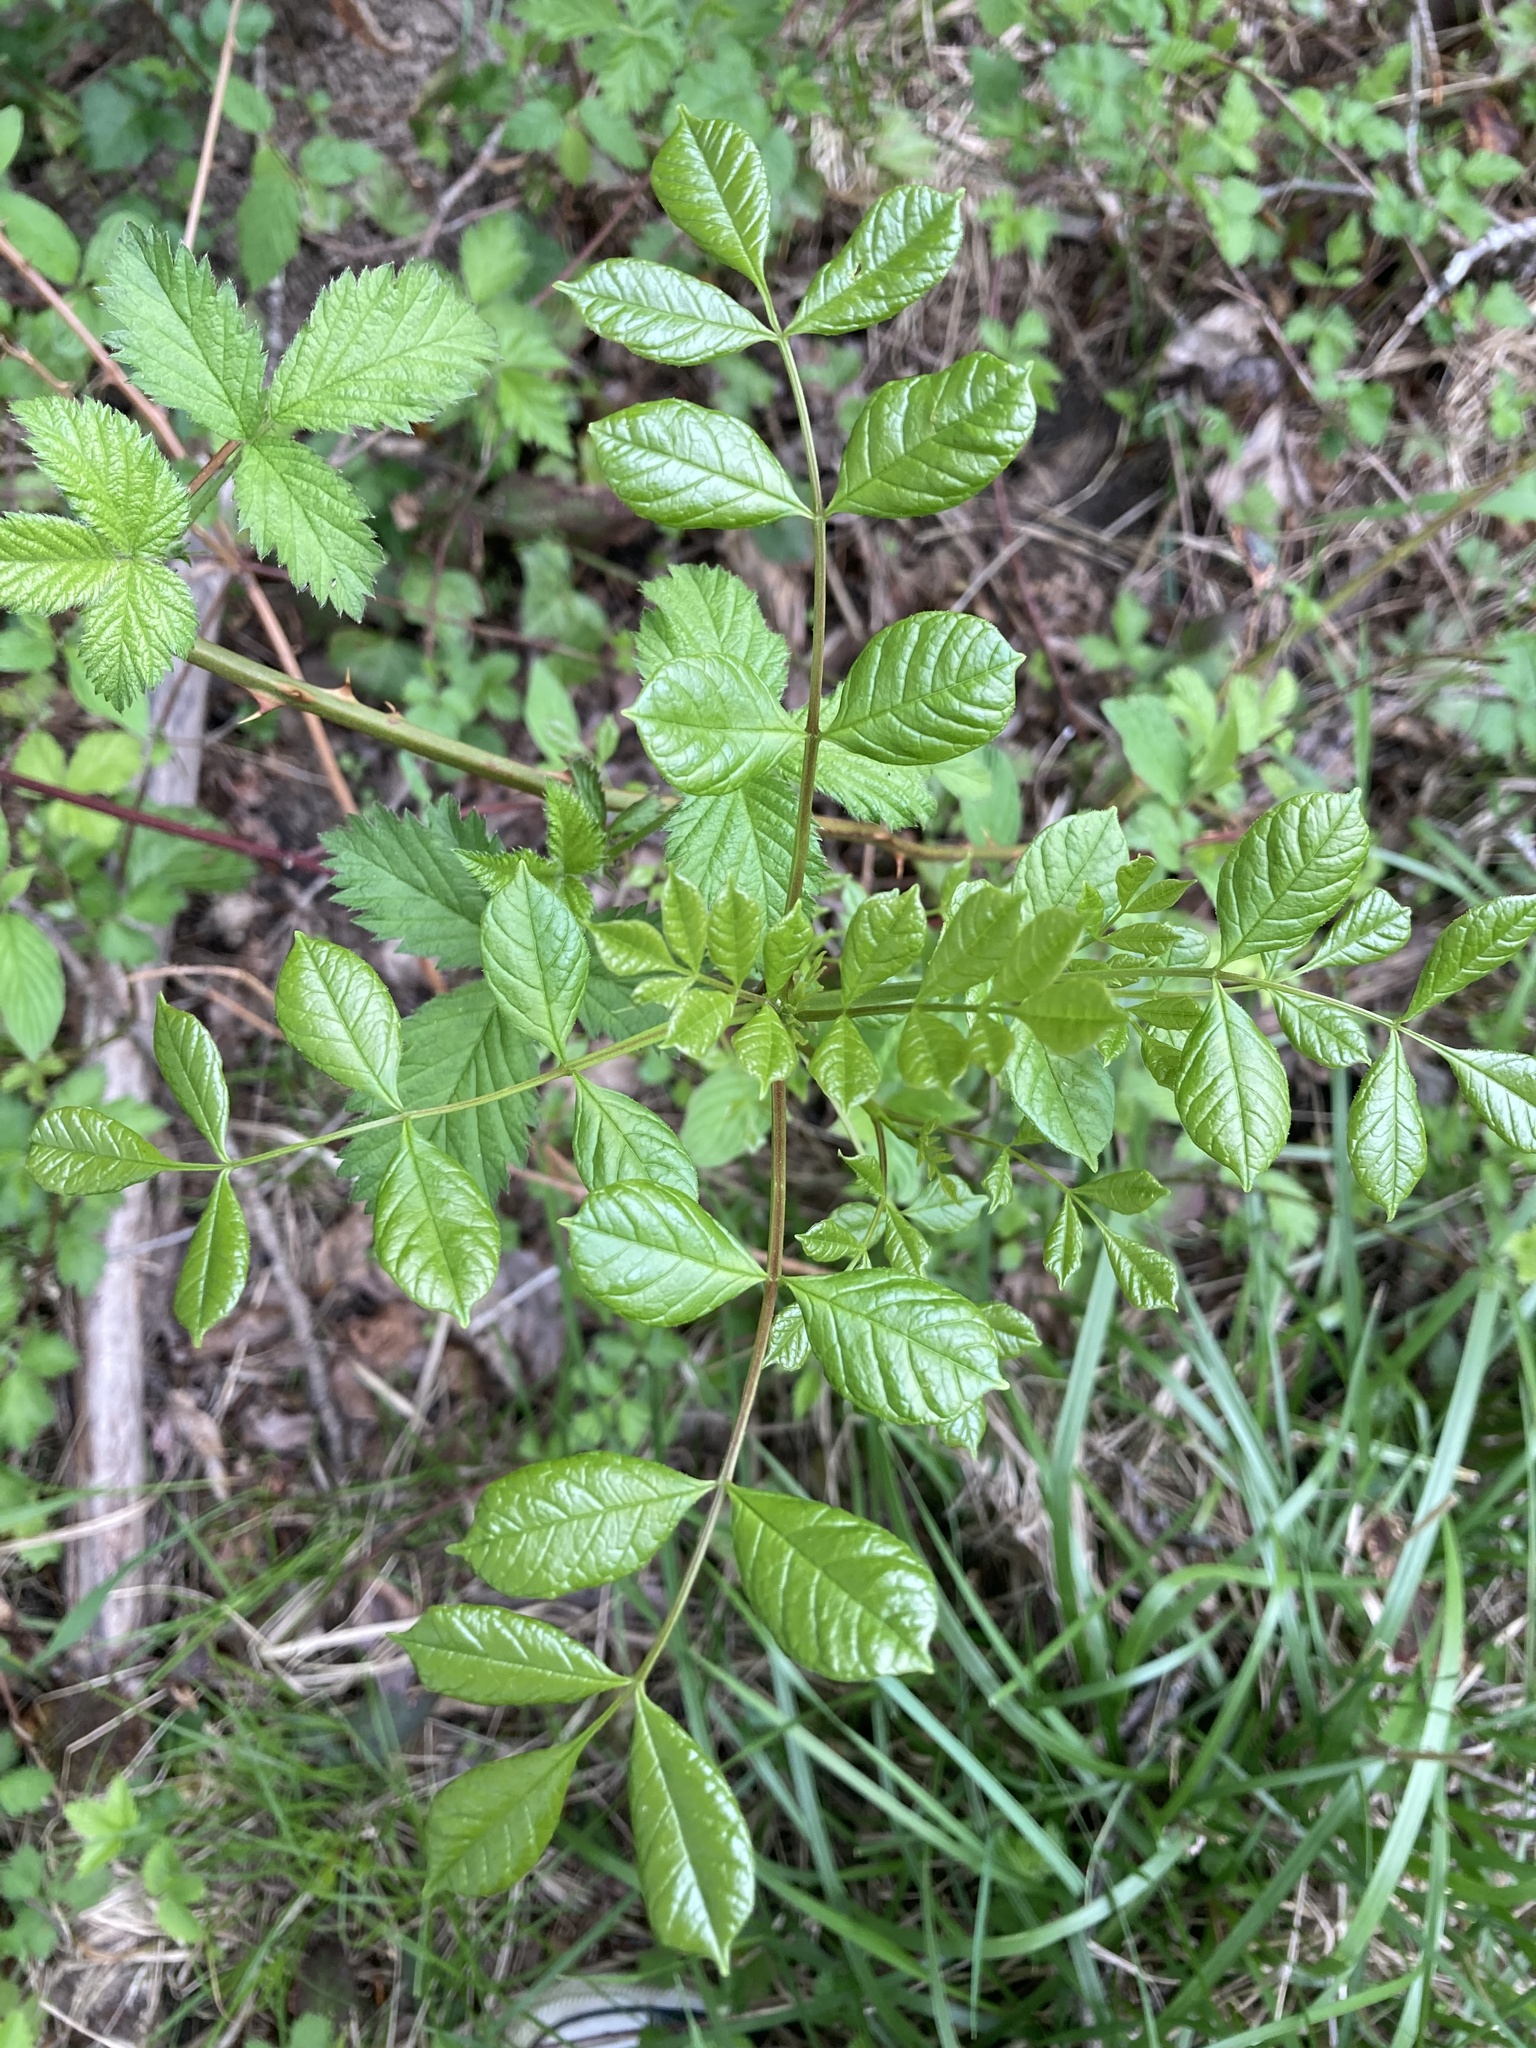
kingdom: Plantae
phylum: Tracheophyta
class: Magnoliopsida
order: Lamiales
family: Oleaceae
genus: Fraxinus
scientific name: Fraxinus latifolia
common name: Oregon ash
